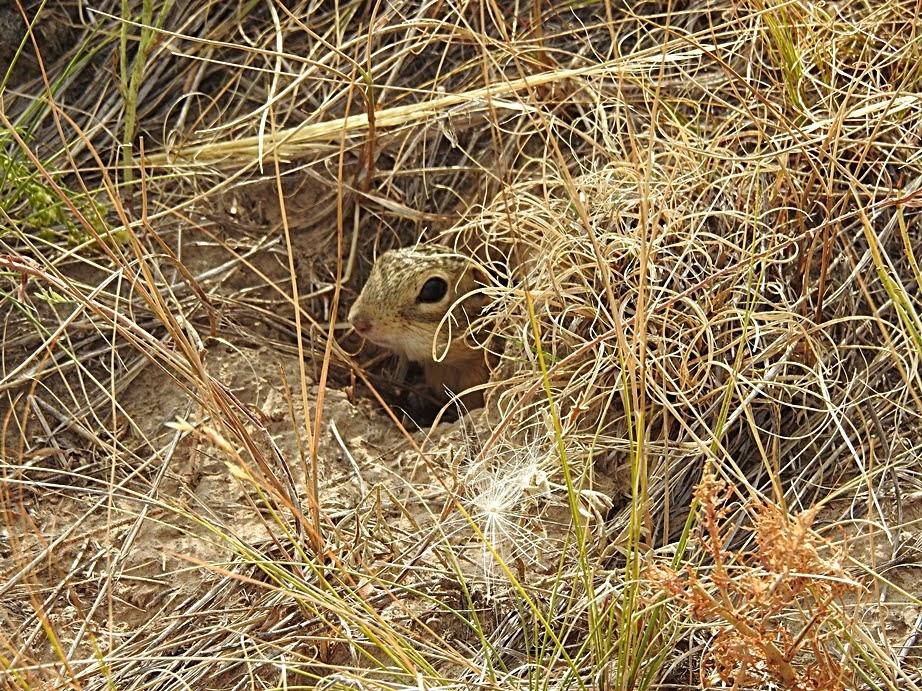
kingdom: Animalia
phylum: Chordata
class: Mammalia
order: Rodentia
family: Sciuridae
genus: Ictidomys
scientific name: Ictidomys tridecemlineatus
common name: Thirteen-lined ground squirrel
